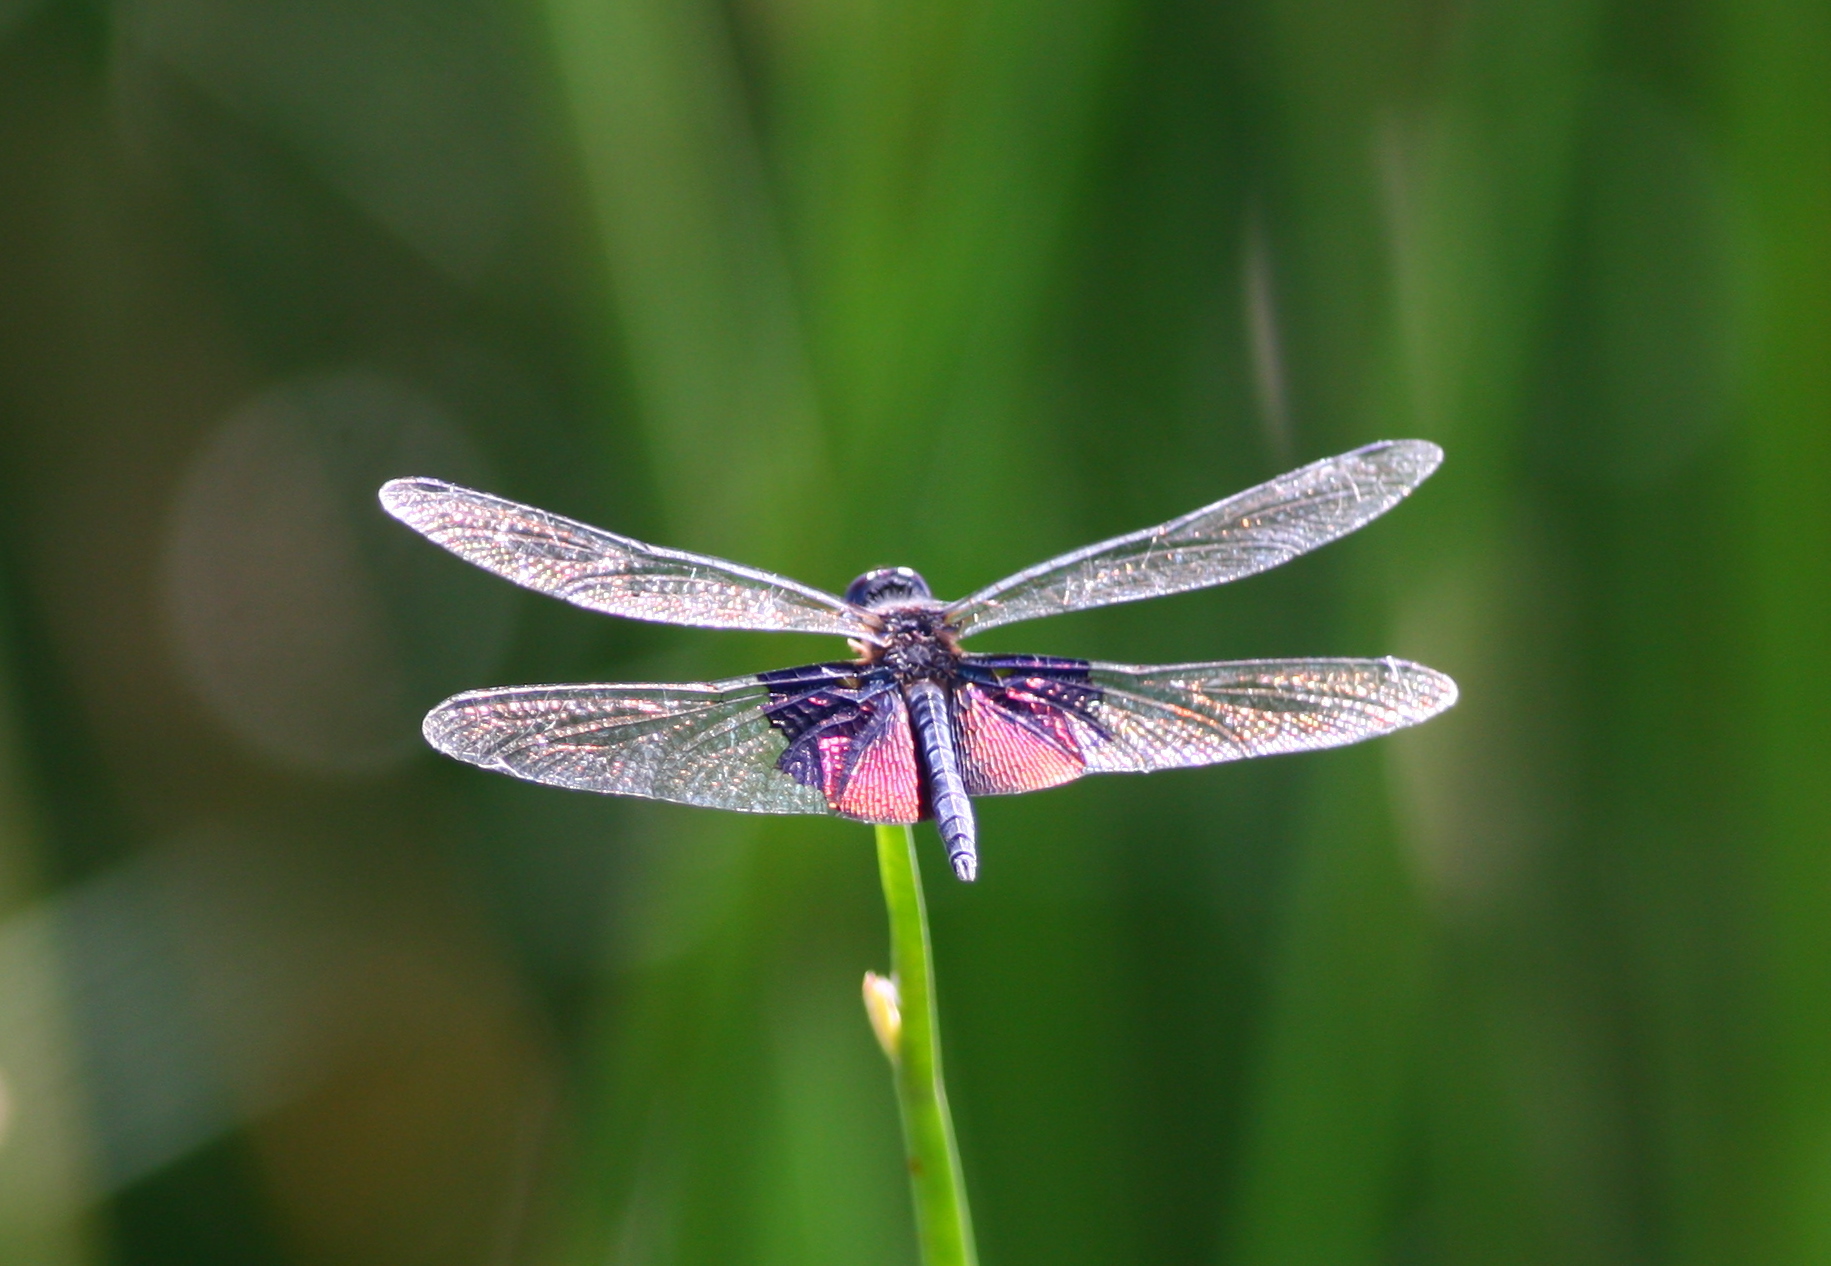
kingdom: Animalia
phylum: Arthropoda
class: Insecta
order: Odonata
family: Libellulidae
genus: Rhyothemis
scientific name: Rhyothemis semihyalina
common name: Phantom flutterer
